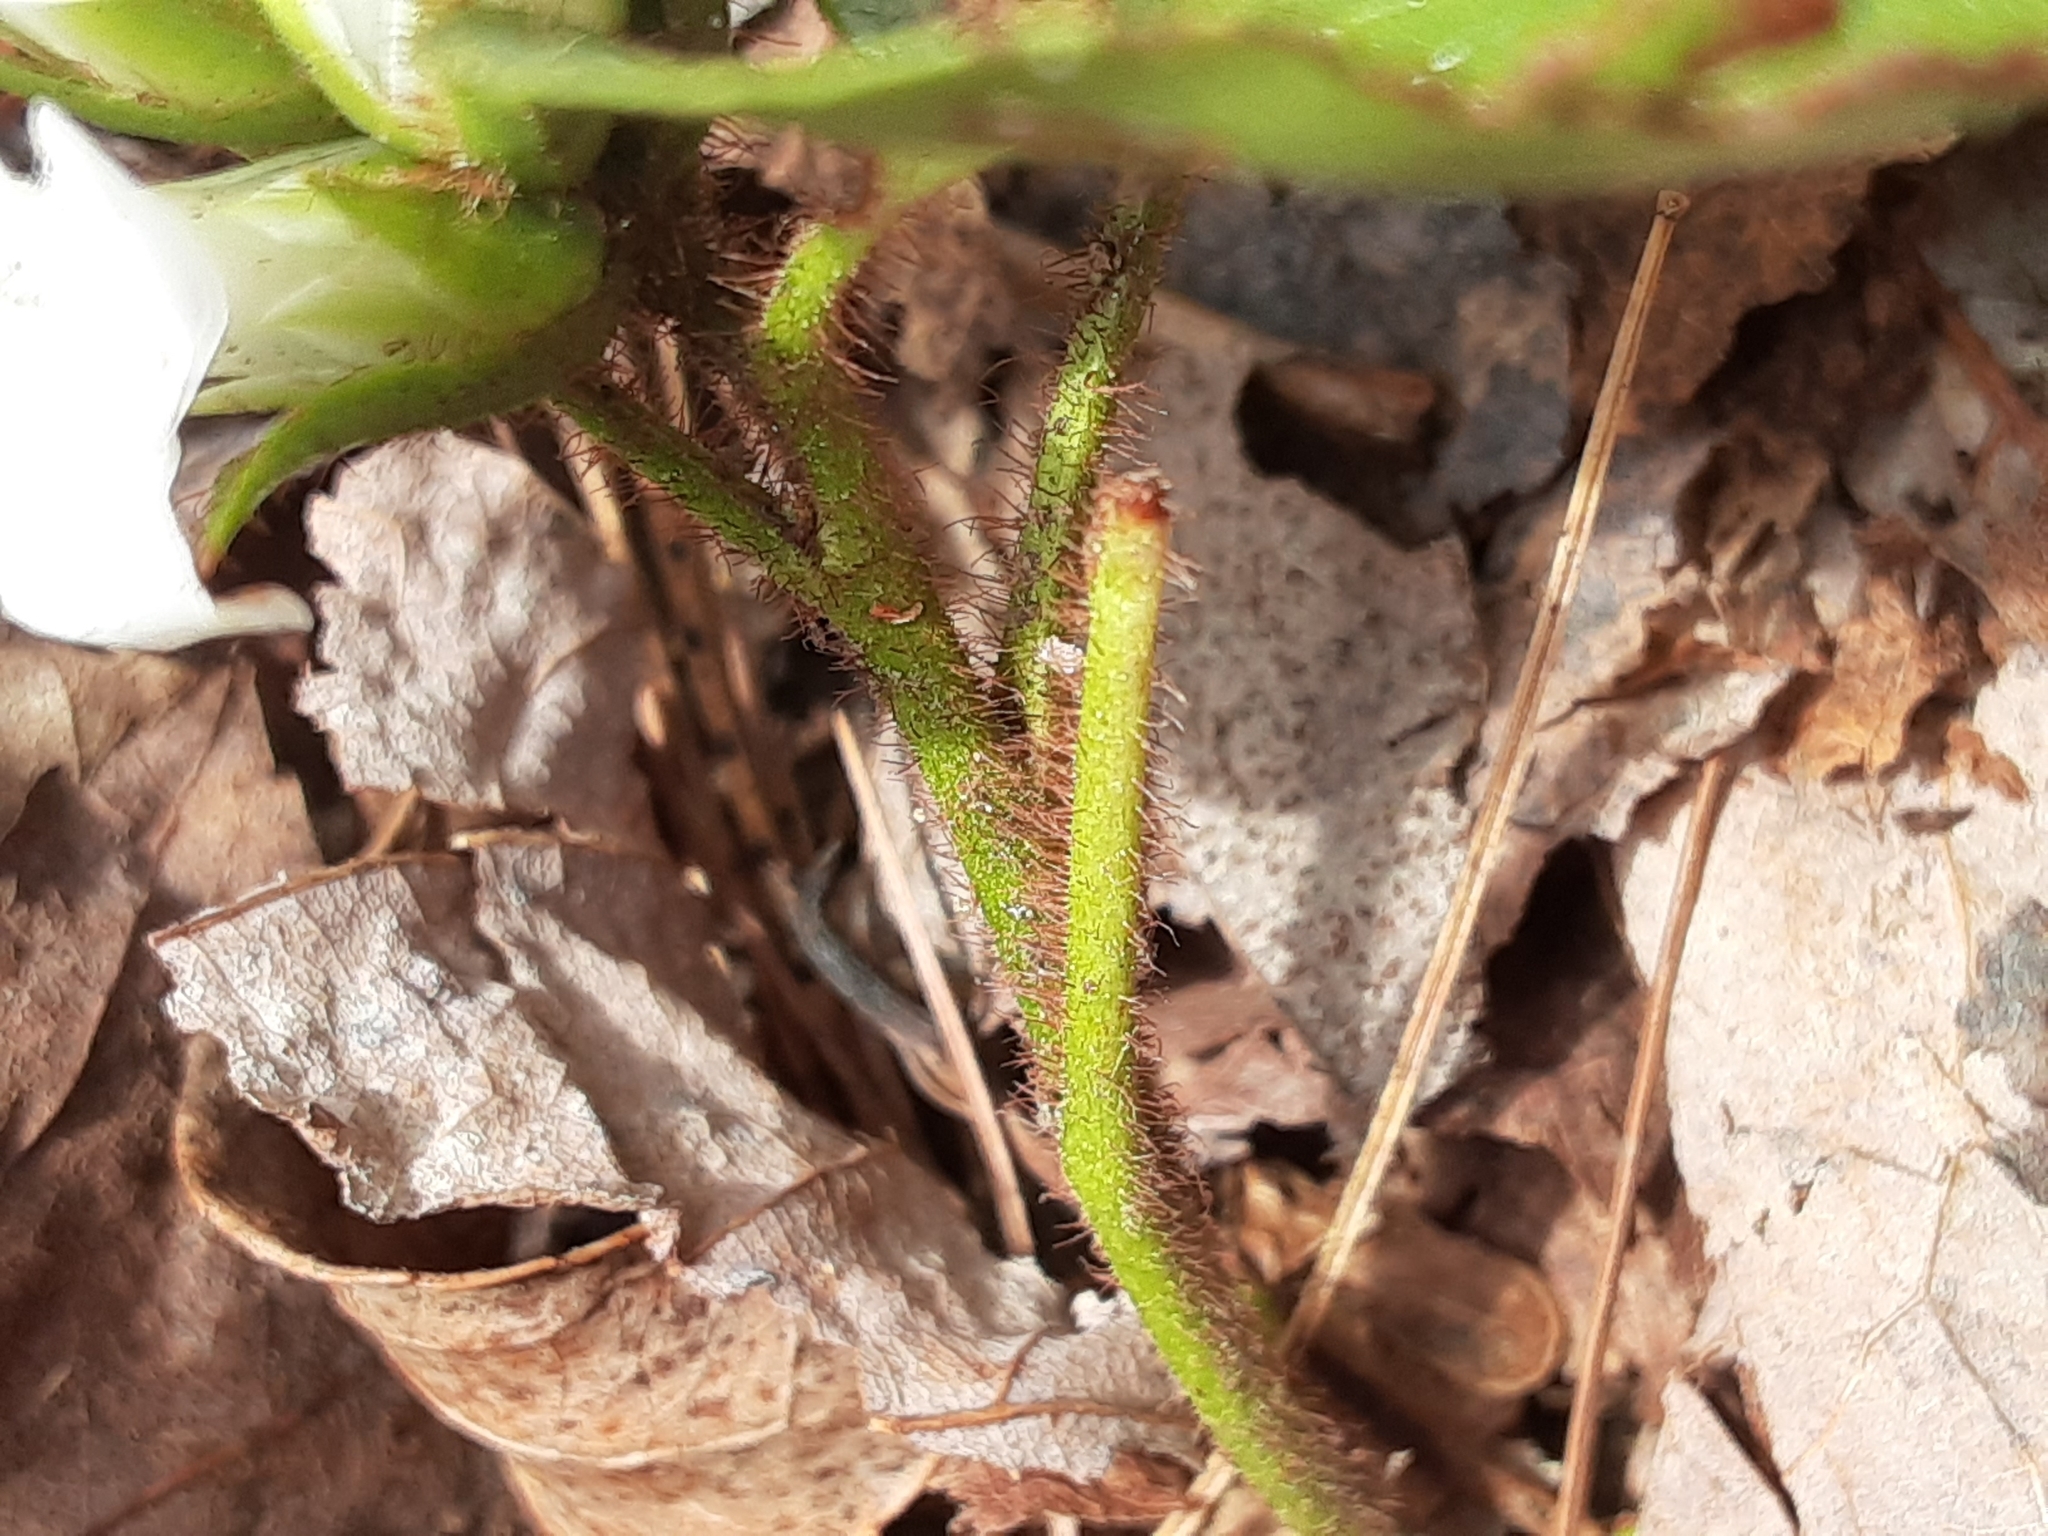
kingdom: Plantae
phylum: Tracheophyta
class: Magnoliopsida
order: Ericales
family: Ericaceae
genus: Epigaea
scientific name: Epigaea repens
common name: Gravelroot
